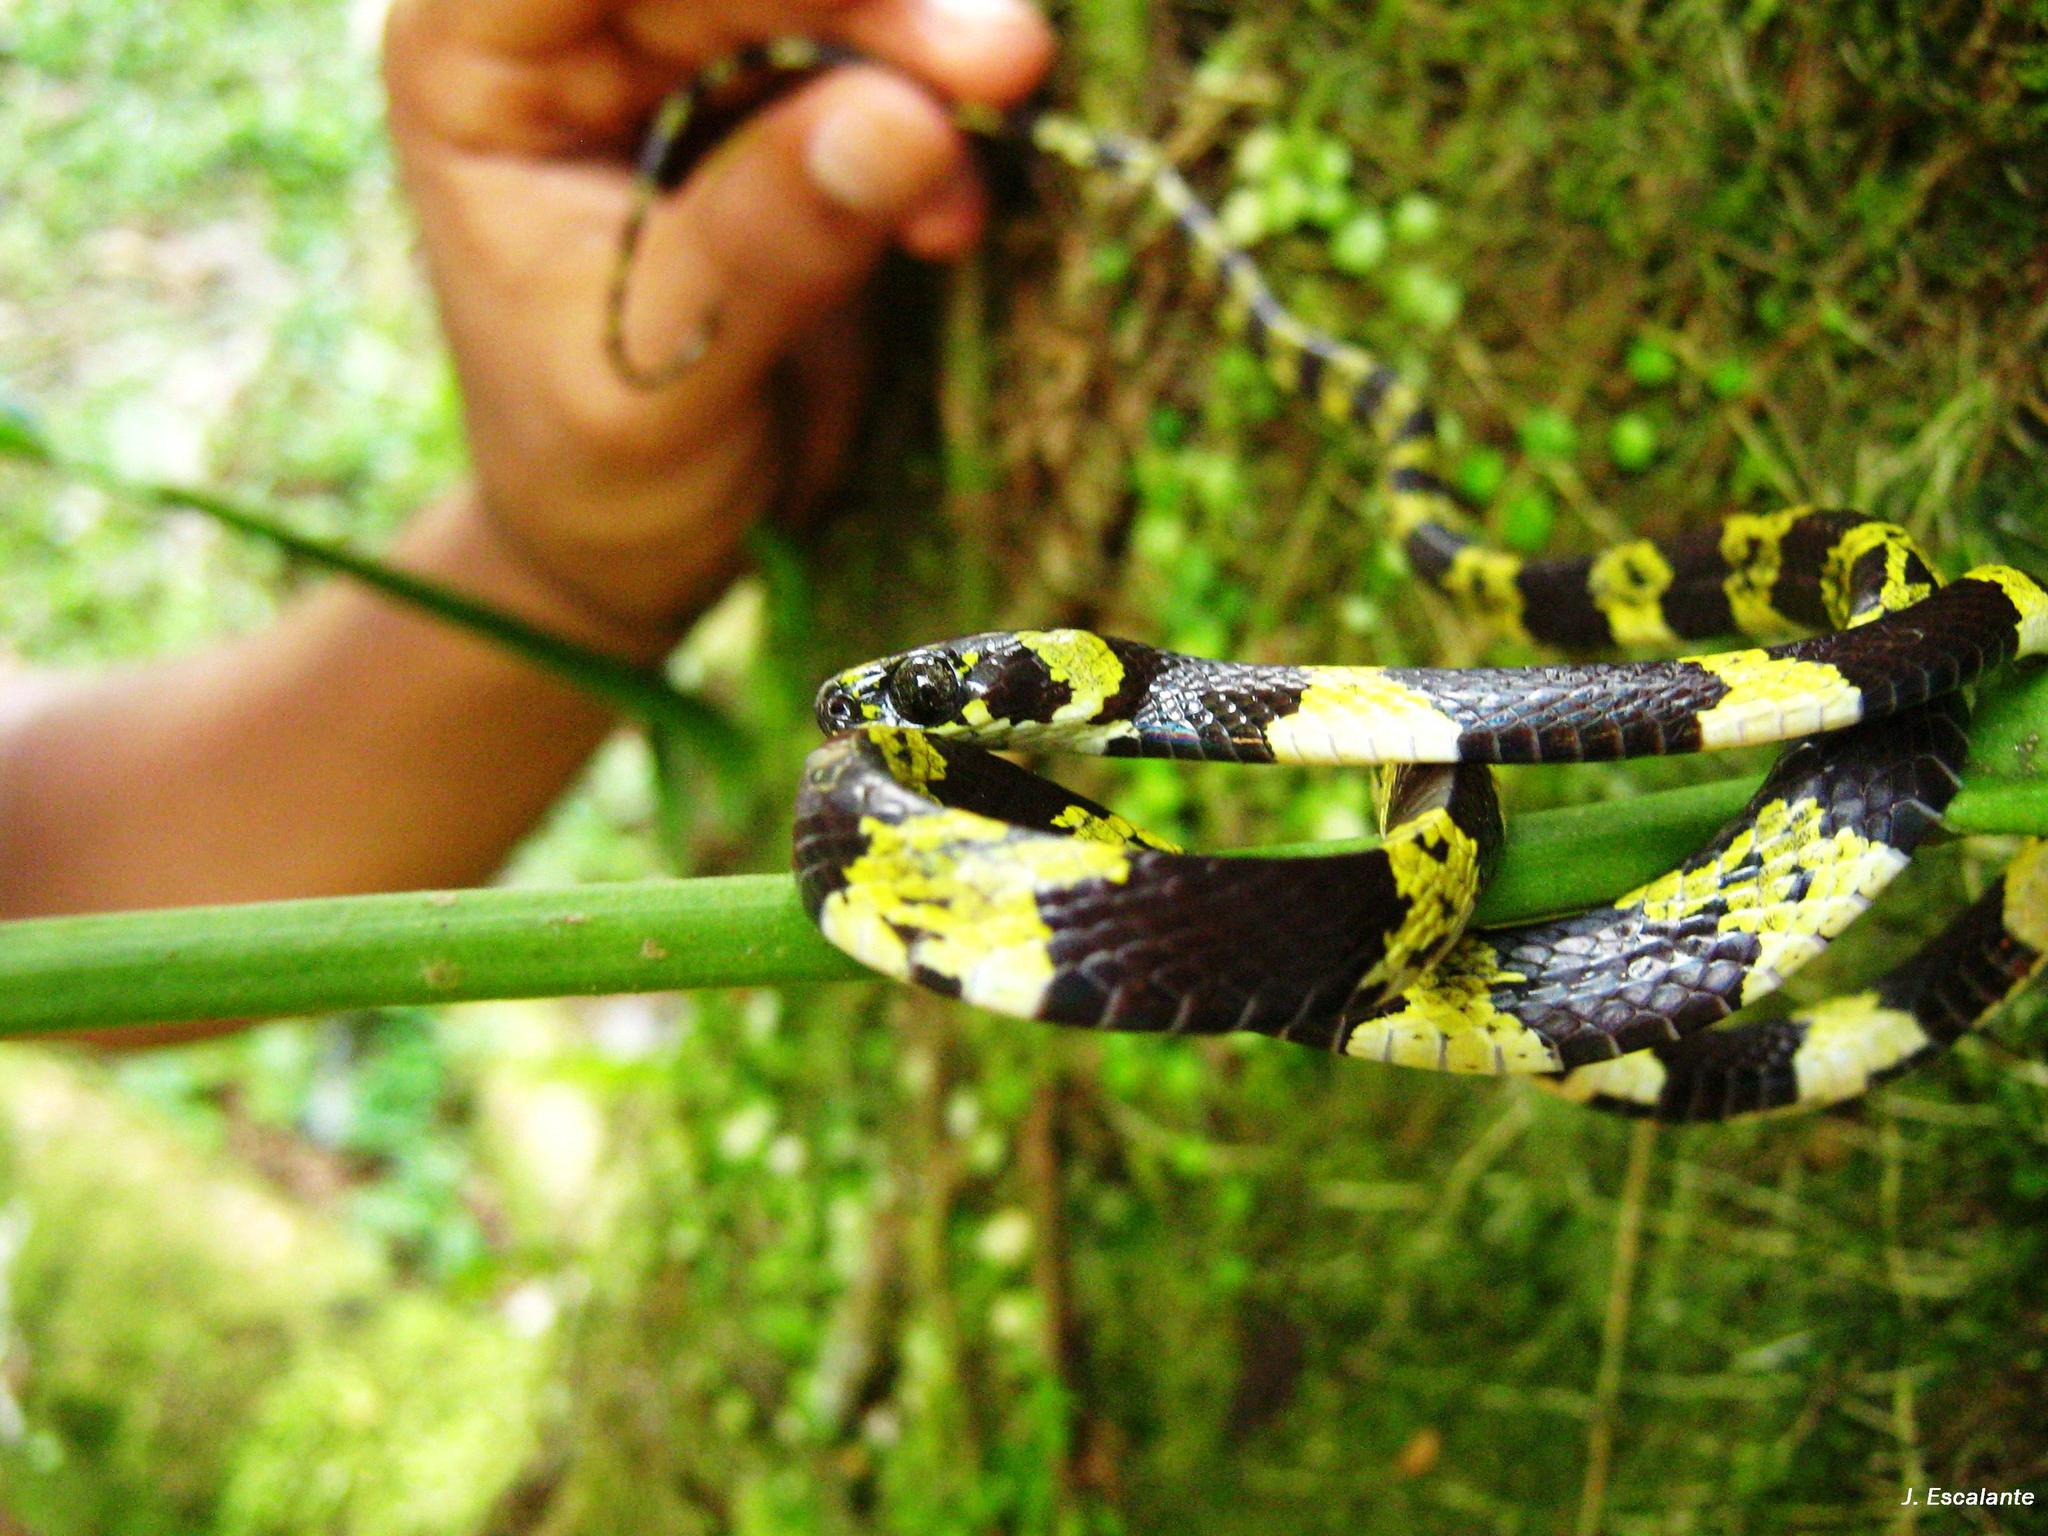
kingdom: Animalia
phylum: Chordata
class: Squamata
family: Colubridae
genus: Sibon
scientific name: Sibon dimidiatus
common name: Slender snail sucker
